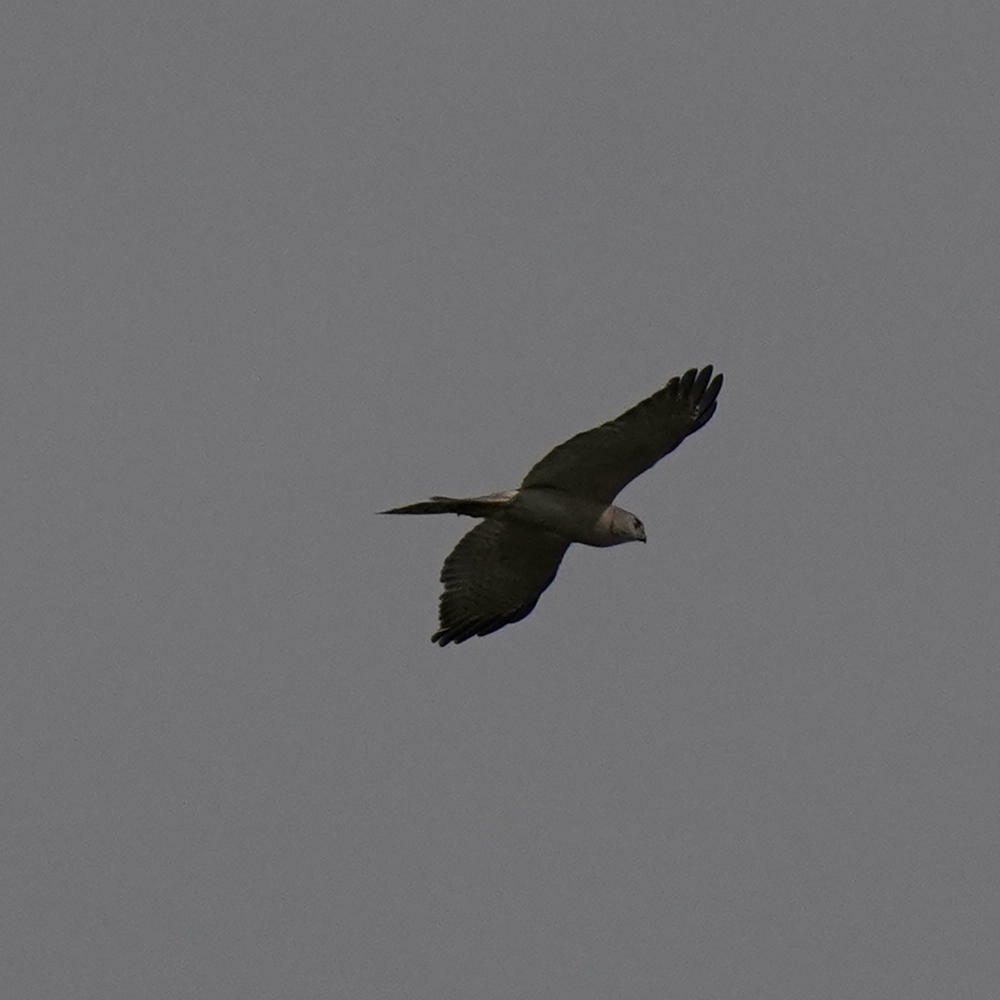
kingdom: Animalia
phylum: Chordata
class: Aves
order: Accipitriformes
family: Accipitridae
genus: Accipiter
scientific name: Accipiter badius
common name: Shikra
